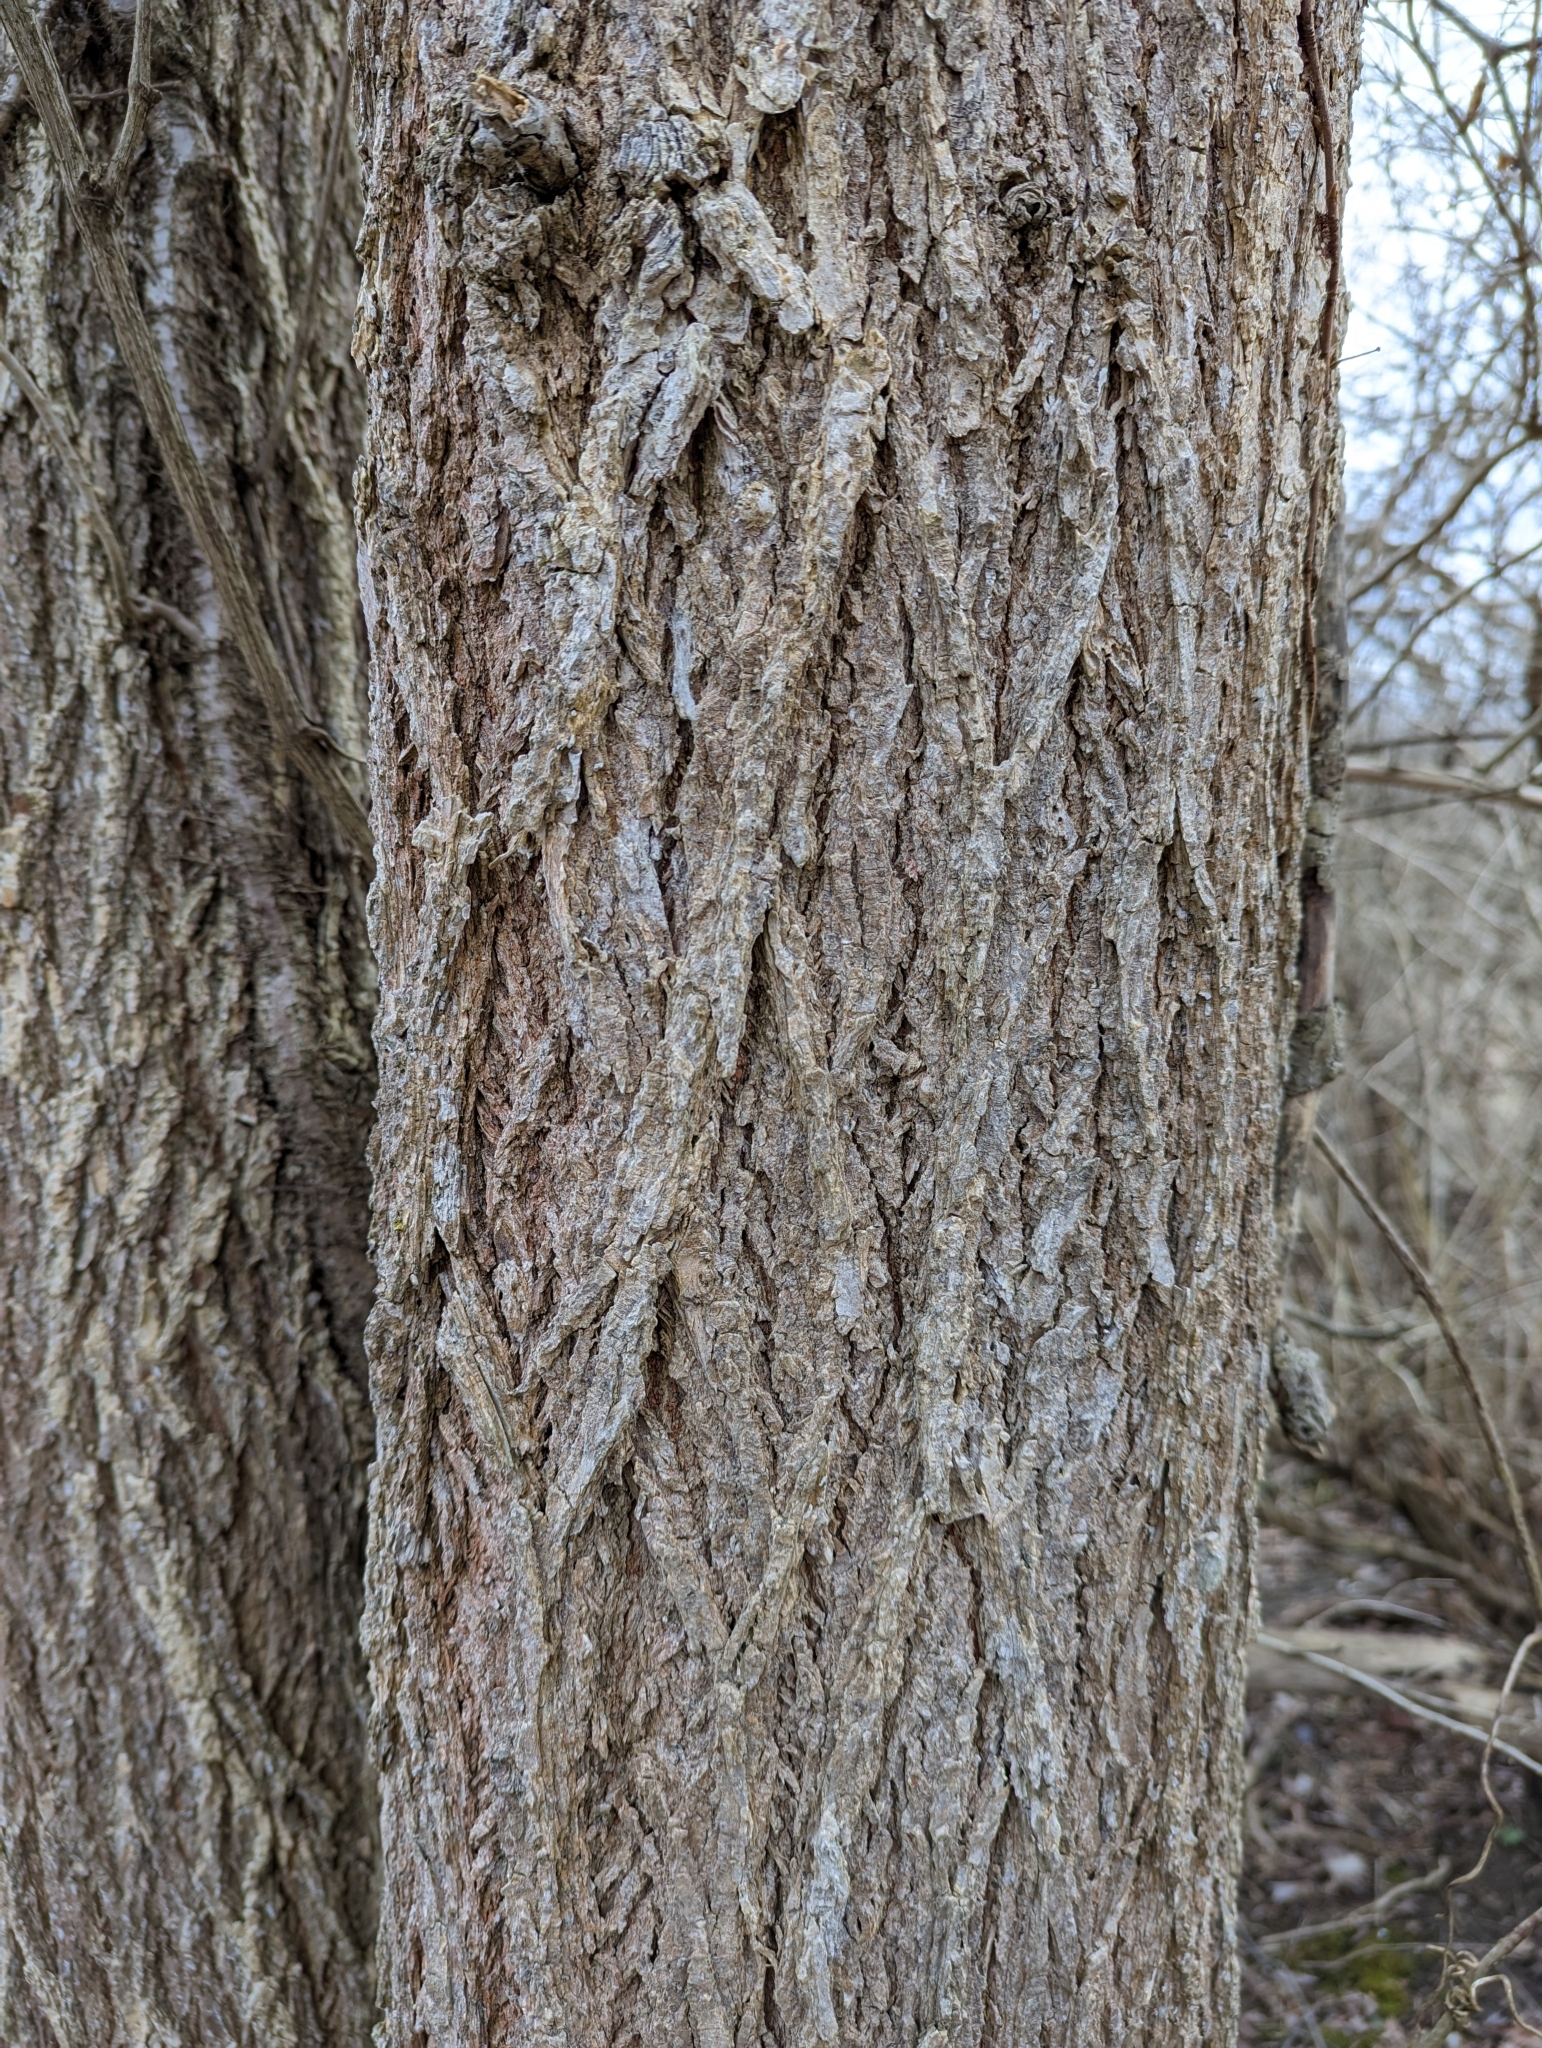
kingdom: Plantae
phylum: Tracheophyta
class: Magnoliopsida
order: Rosales
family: Ulmaceae
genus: Ulmus
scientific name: Ulmus americana
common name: American elm
